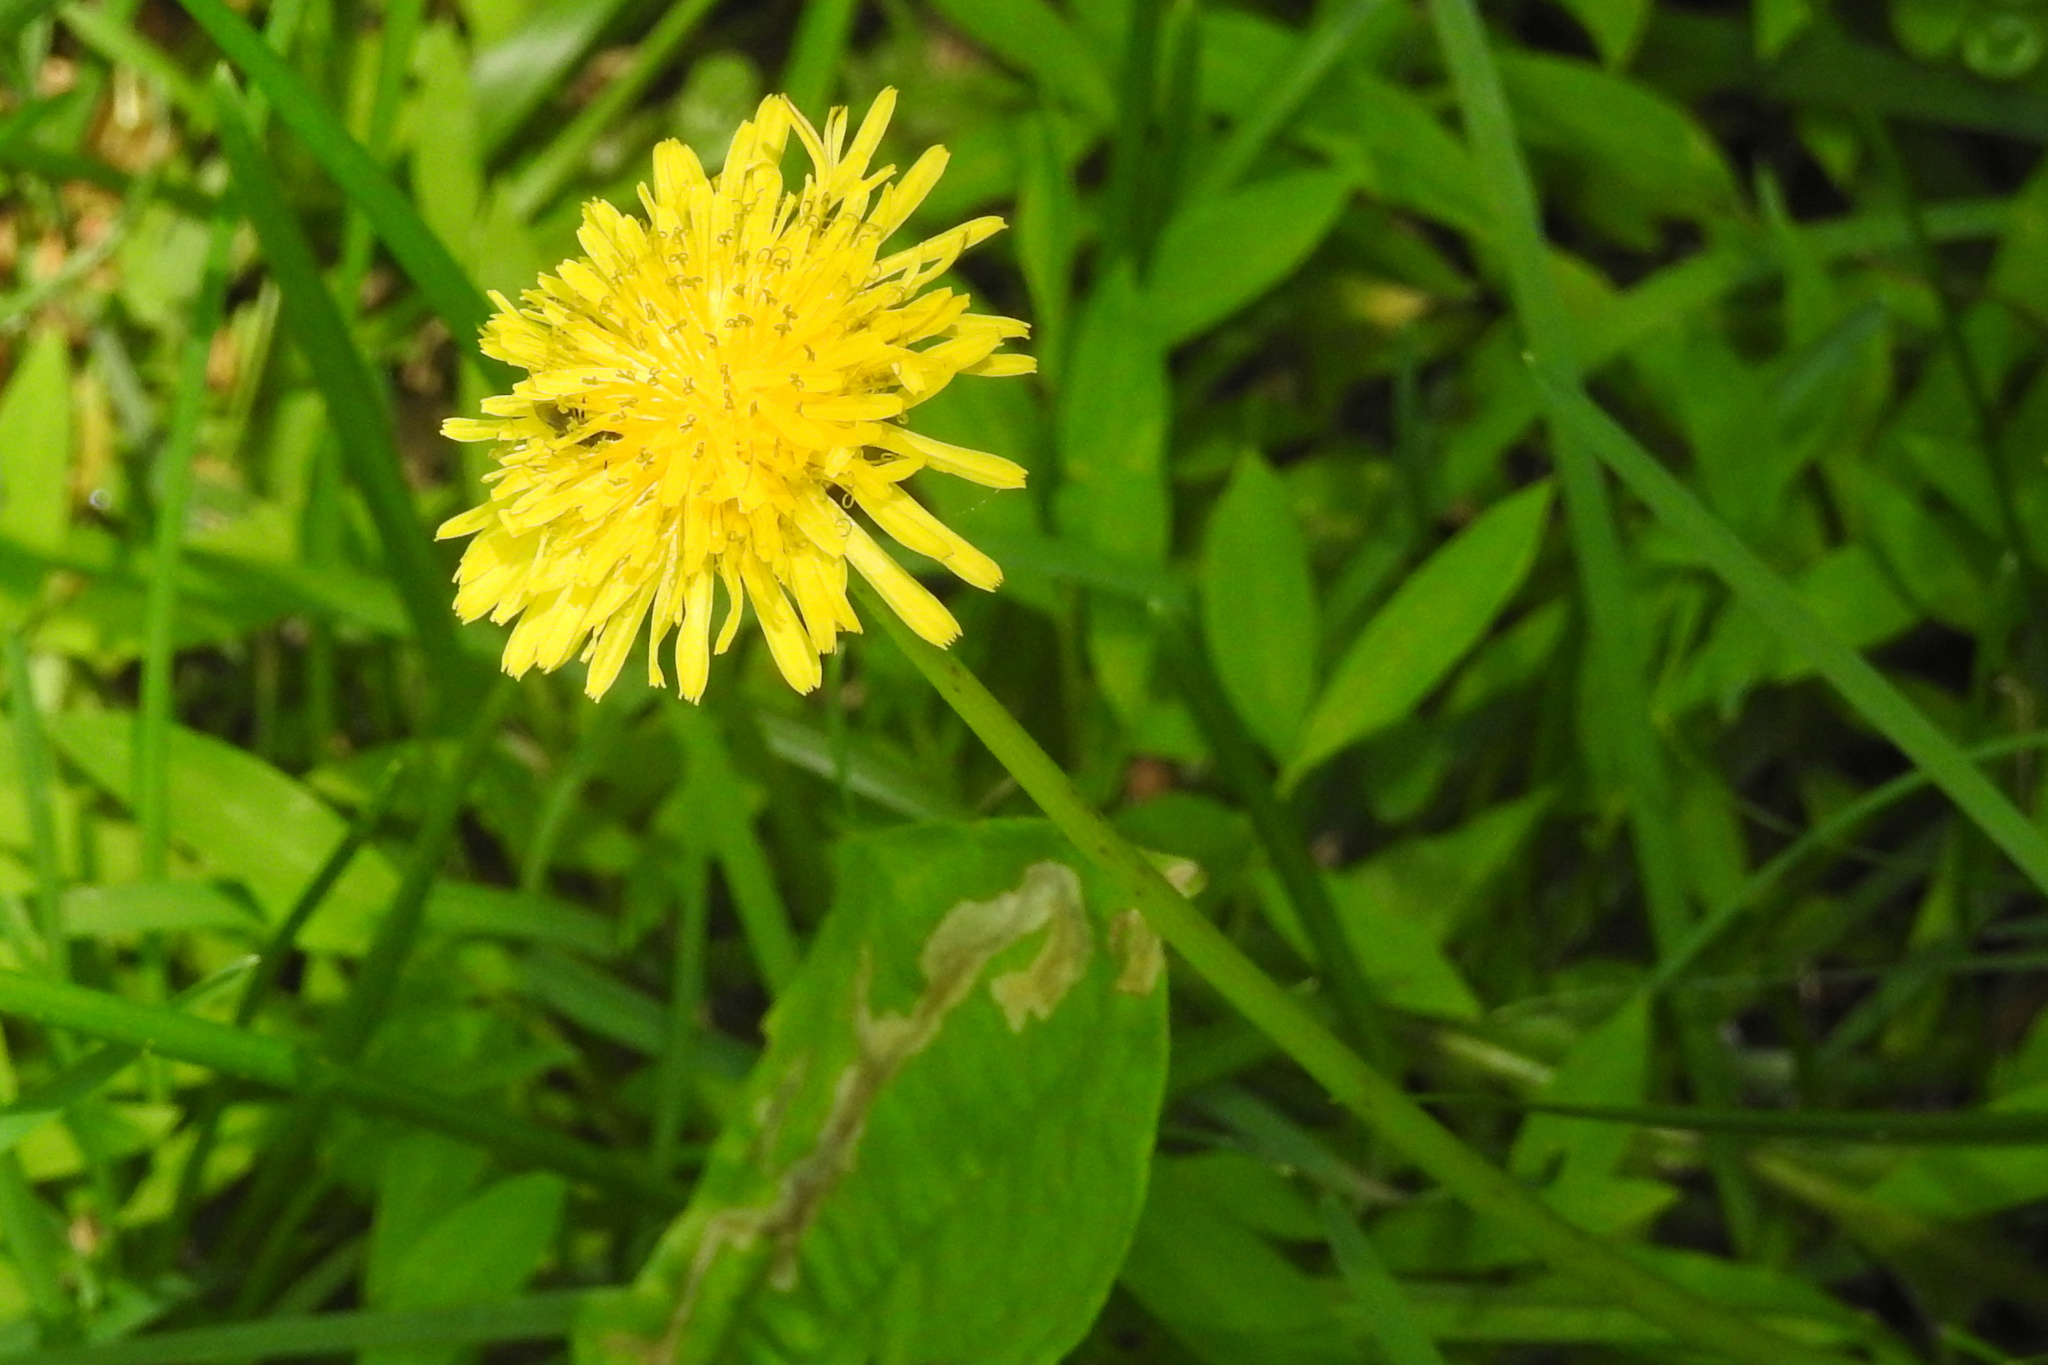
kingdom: Plantae
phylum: Tracheophyta
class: Magnoliopsida
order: Asterales
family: Asteraceae
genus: Taraxacum
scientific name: Taraxacum officinale
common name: Common dandelion
